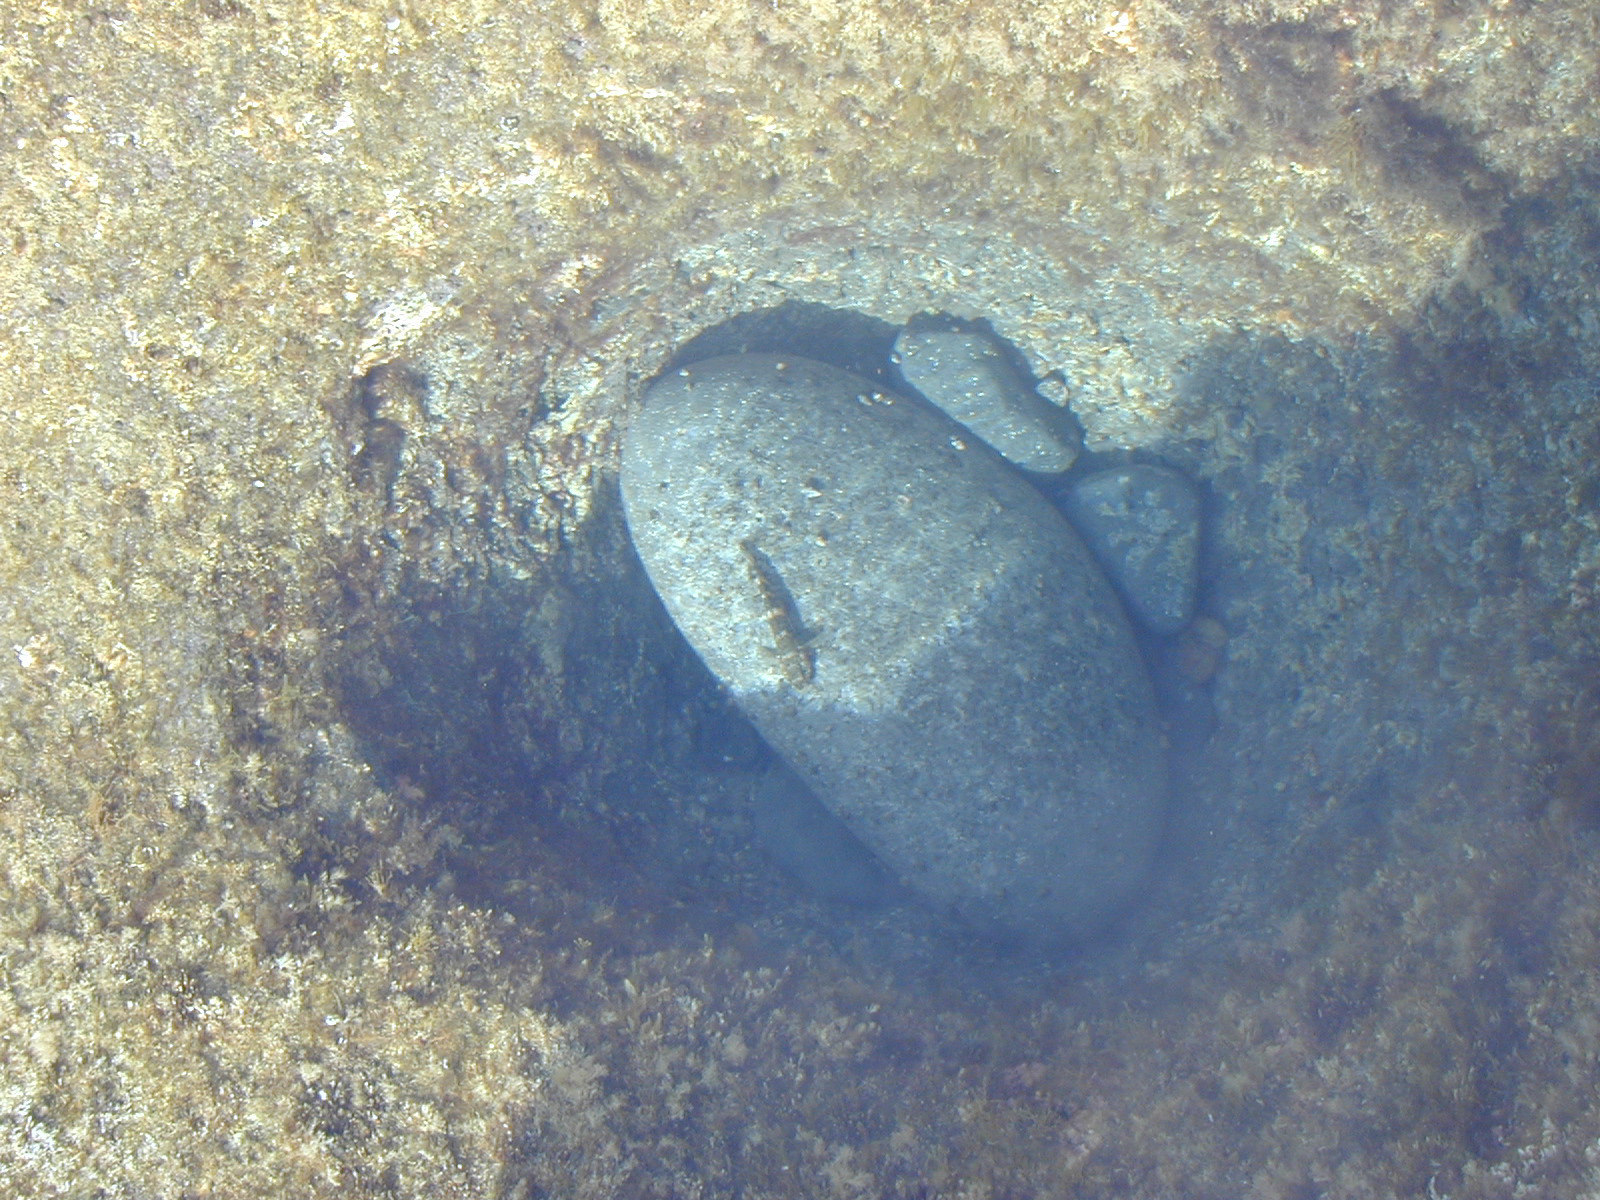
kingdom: Animalia
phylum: Chordata
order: Perciformes
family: Gobiidae
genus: Mauligobius
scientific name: Mauligobius maderensis
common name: Rock goby
